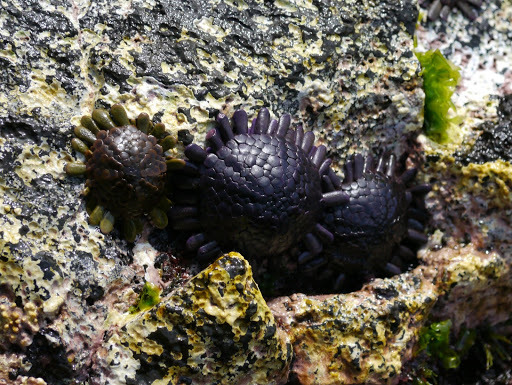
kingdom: Animalia
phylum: Echinodermata
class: Echinoidea
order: Camarodonta
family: Echinometridae
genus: Colobocentrotus
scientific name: Colobocentrotus atratus
